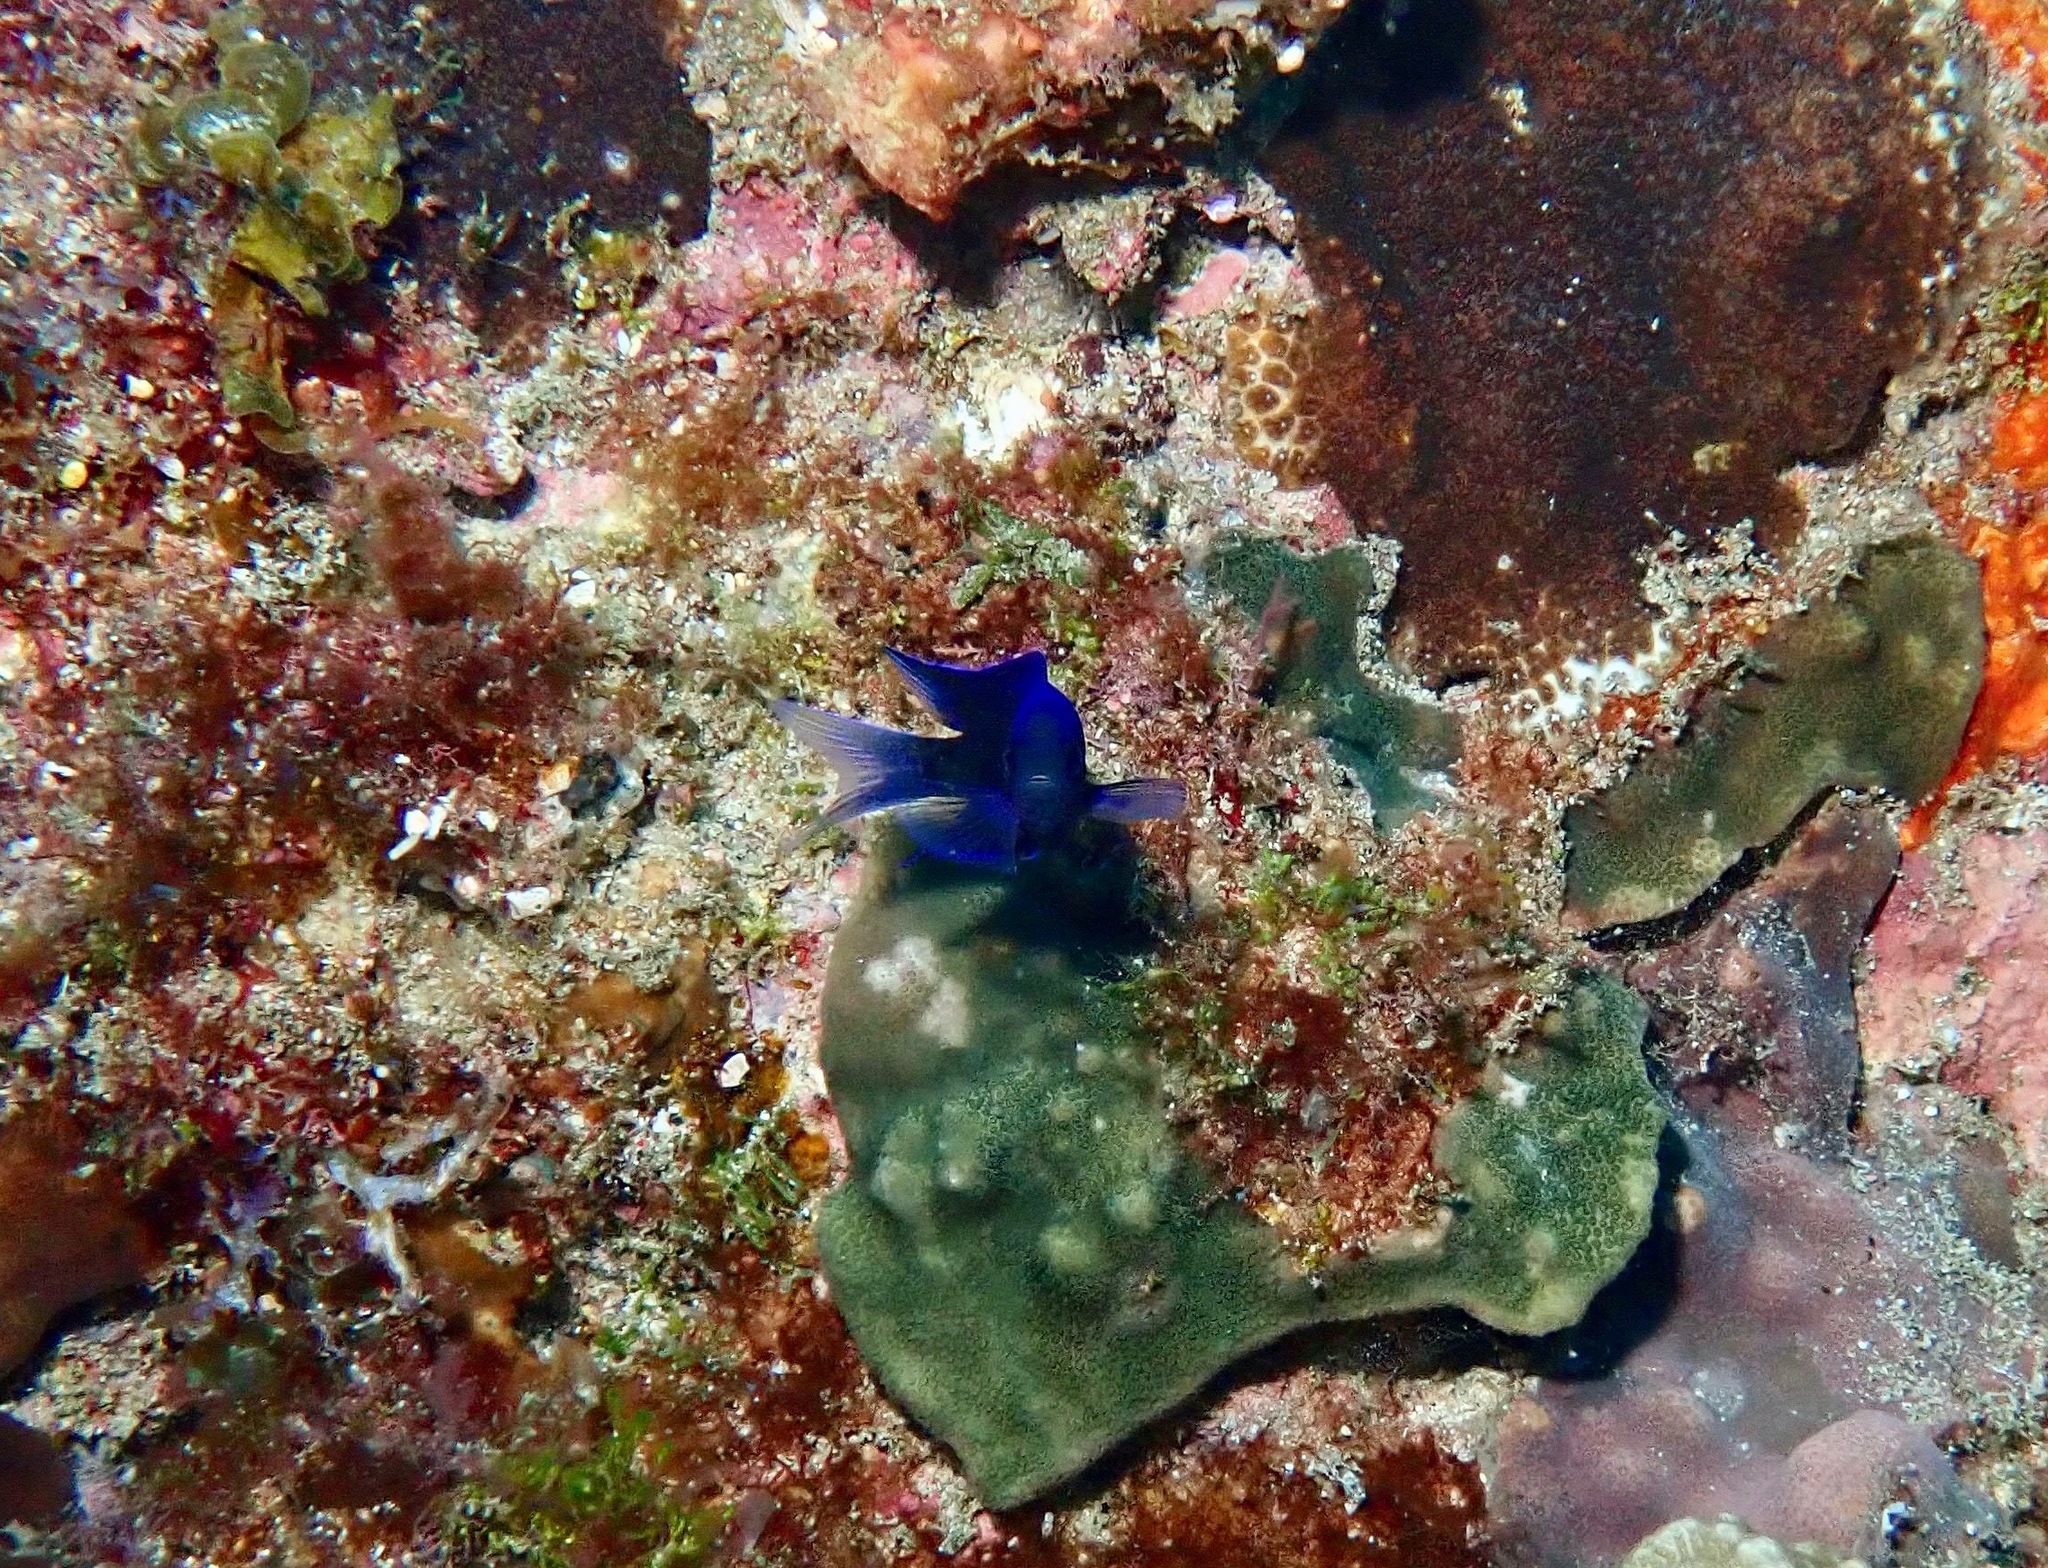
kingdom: Animalia
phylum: Chordata
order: Perciformes
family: Pomacentridae
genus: Chrysiptera
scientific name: Chrysiptera notialis
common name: Southern demoiselle
